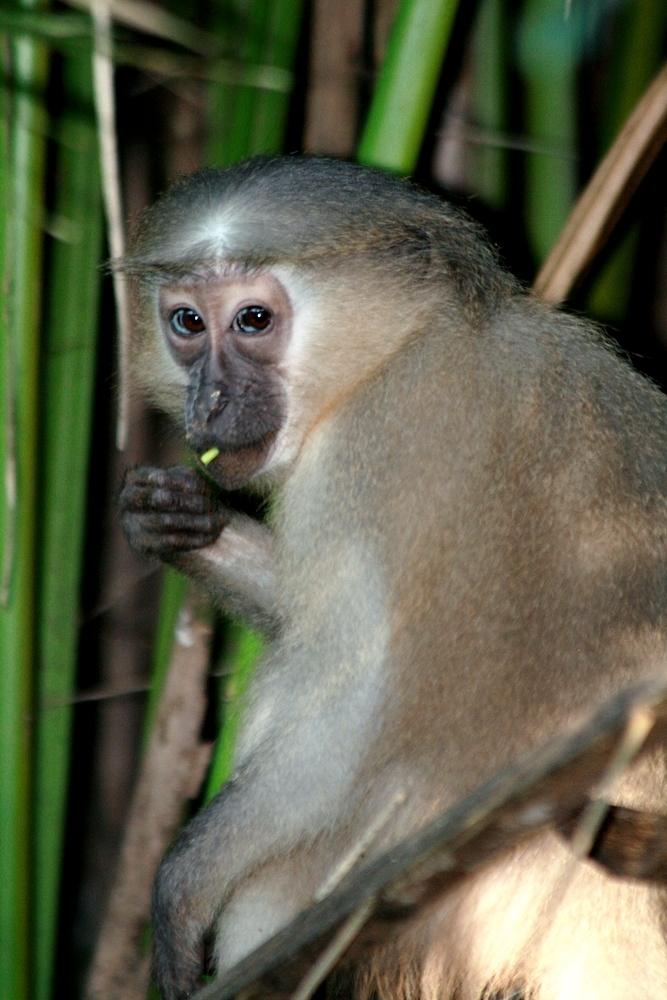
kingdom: Animalia
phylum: Chordata
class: Mammalia
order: Primates
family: Cercopithecidae
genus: Cercocebus
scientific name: Cercocebus galeritus
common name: Tana river mangabey
